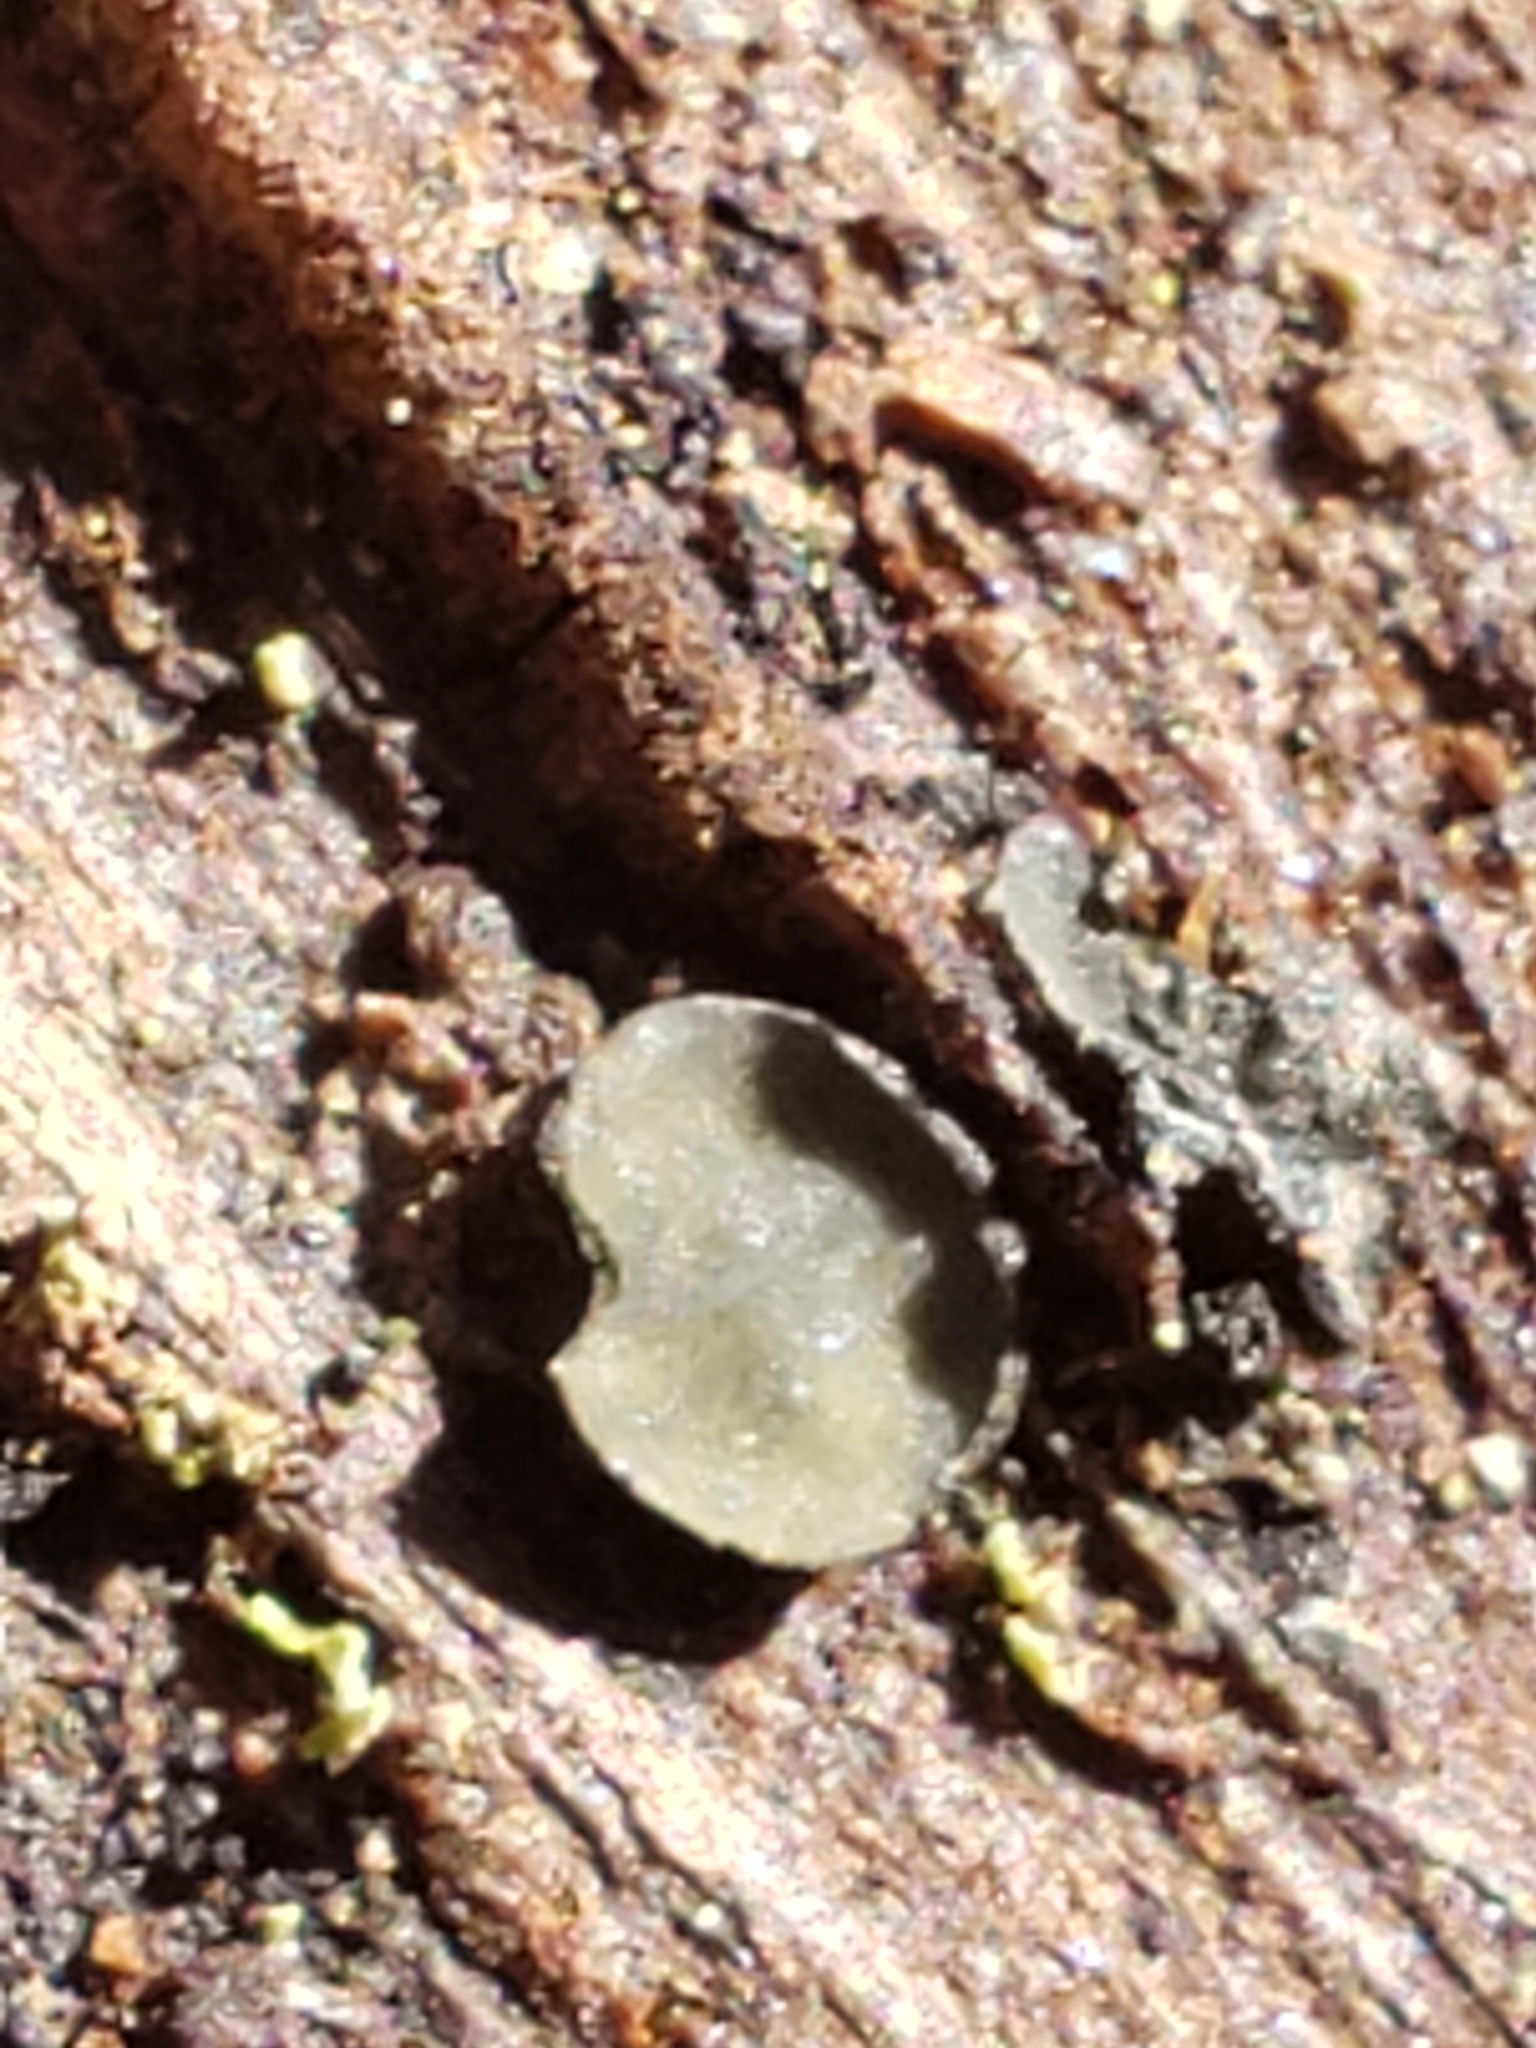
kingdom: Fungi
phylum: Ascomycota
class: Leotiomycetes
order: Helotiales
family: Chlorospleniaceae
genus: Chlorosplenium
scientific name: Chlorosplenium chlora
